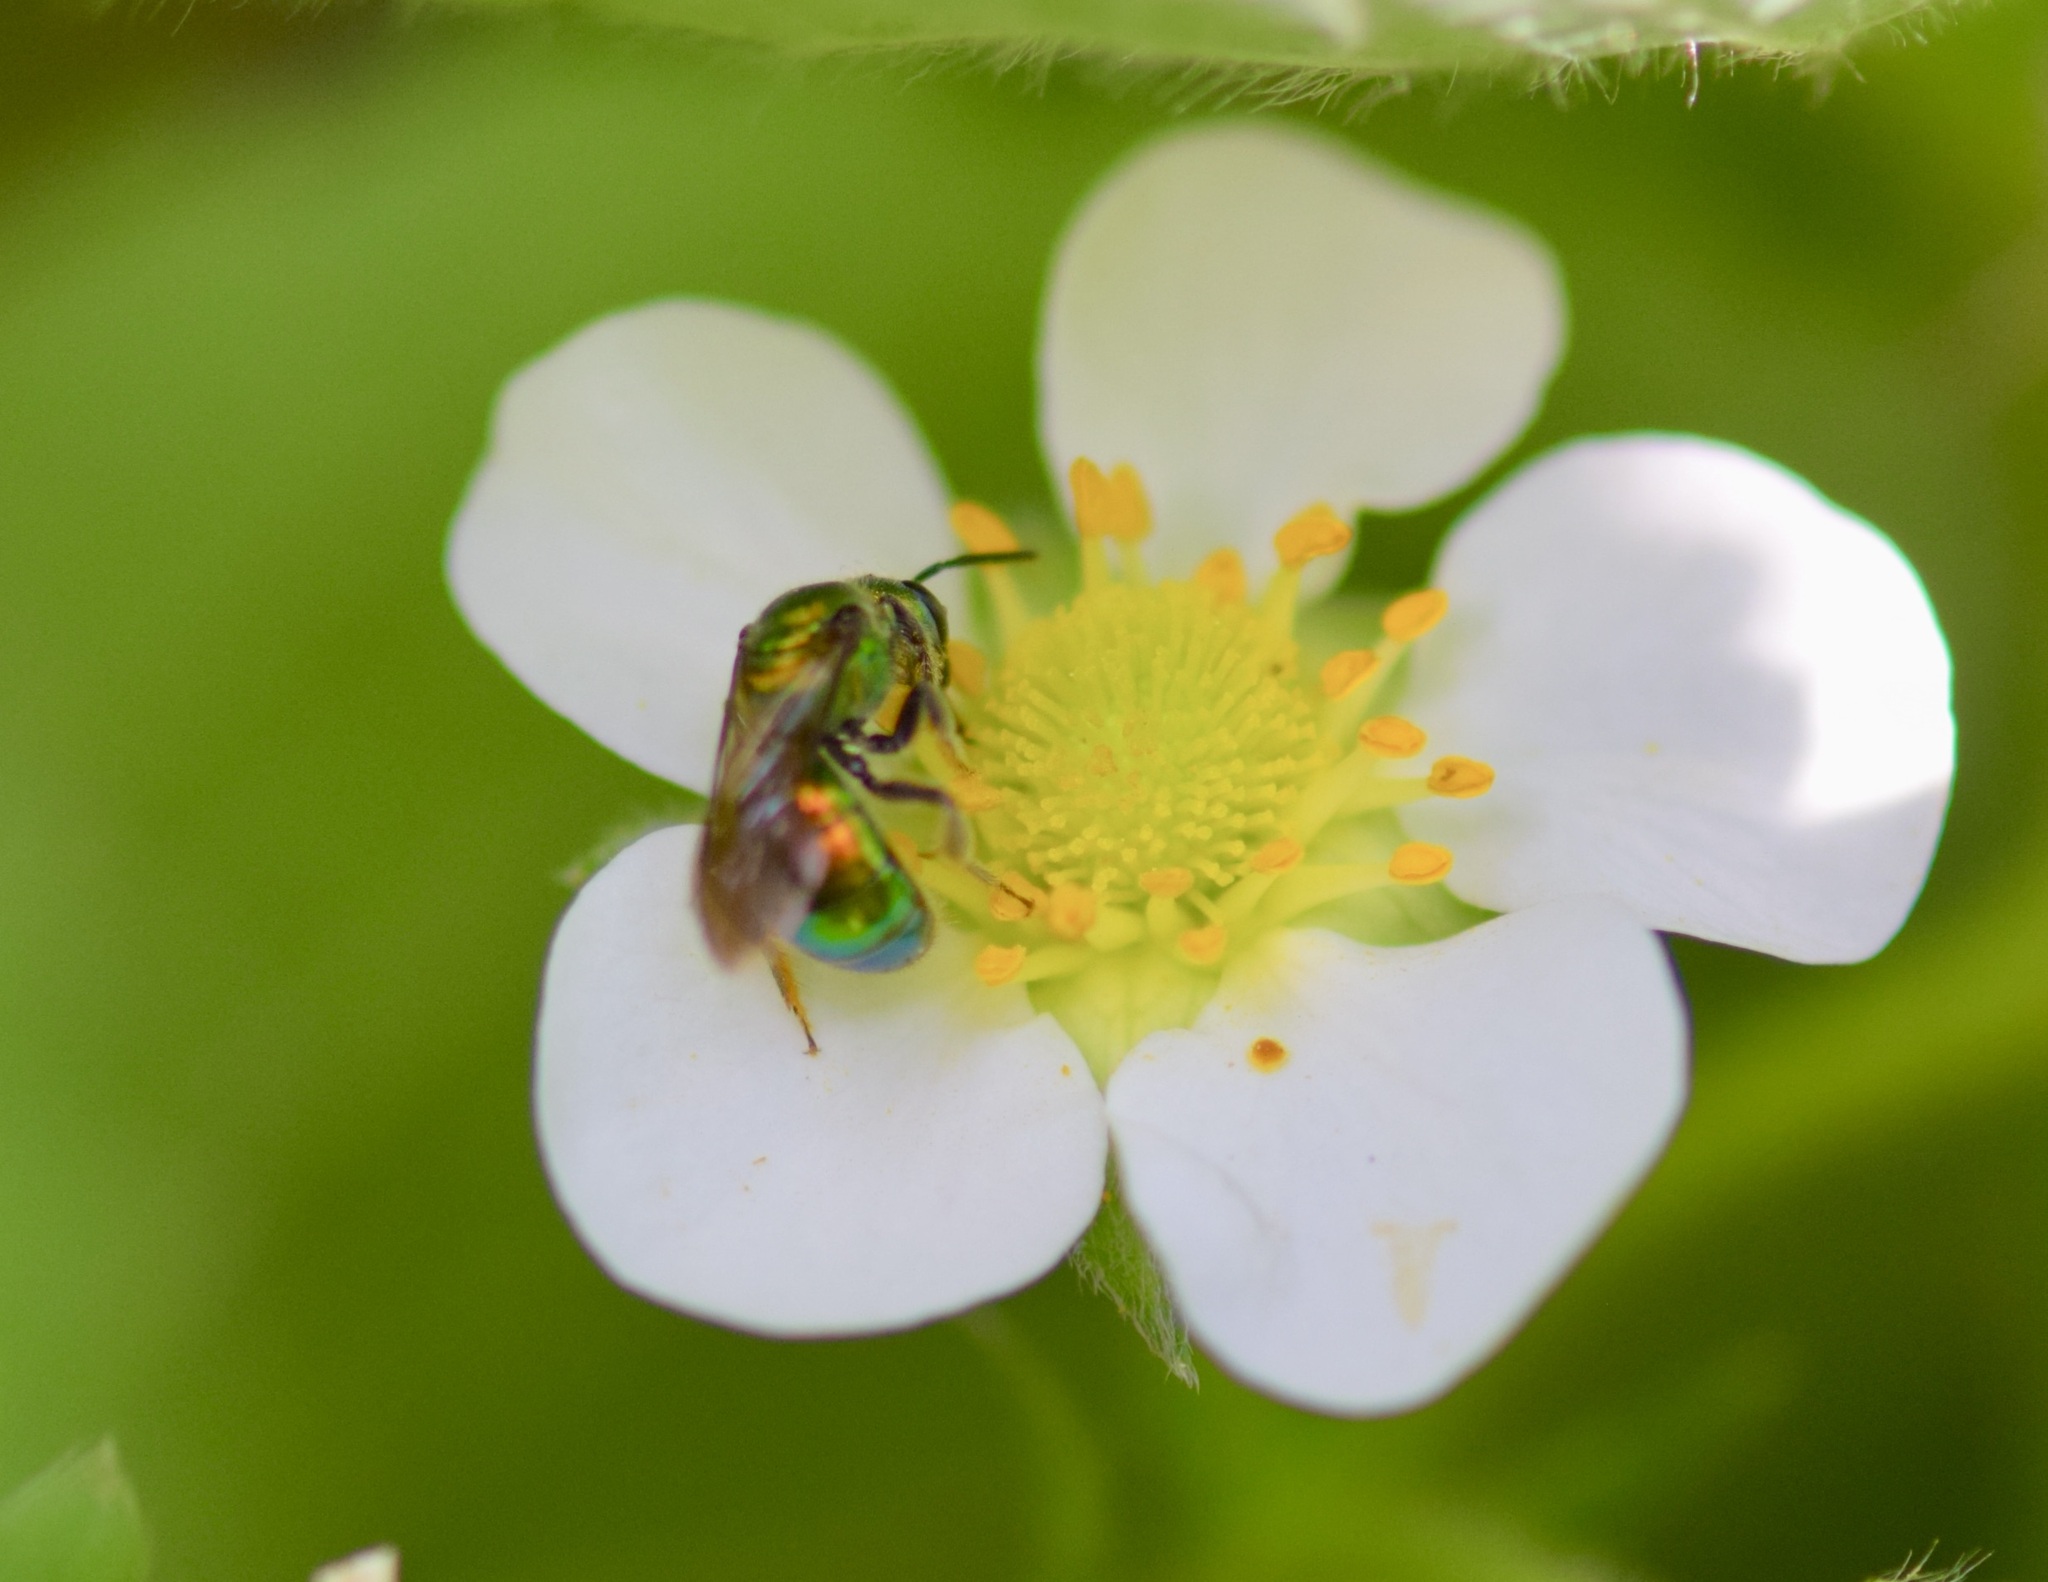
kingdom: Animalia
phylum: Arthropoda
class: Insecta
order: Hymenoptera
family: Halictidae
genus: Augochlora
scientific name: Augochlora pura
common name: Pure green sweat bee
